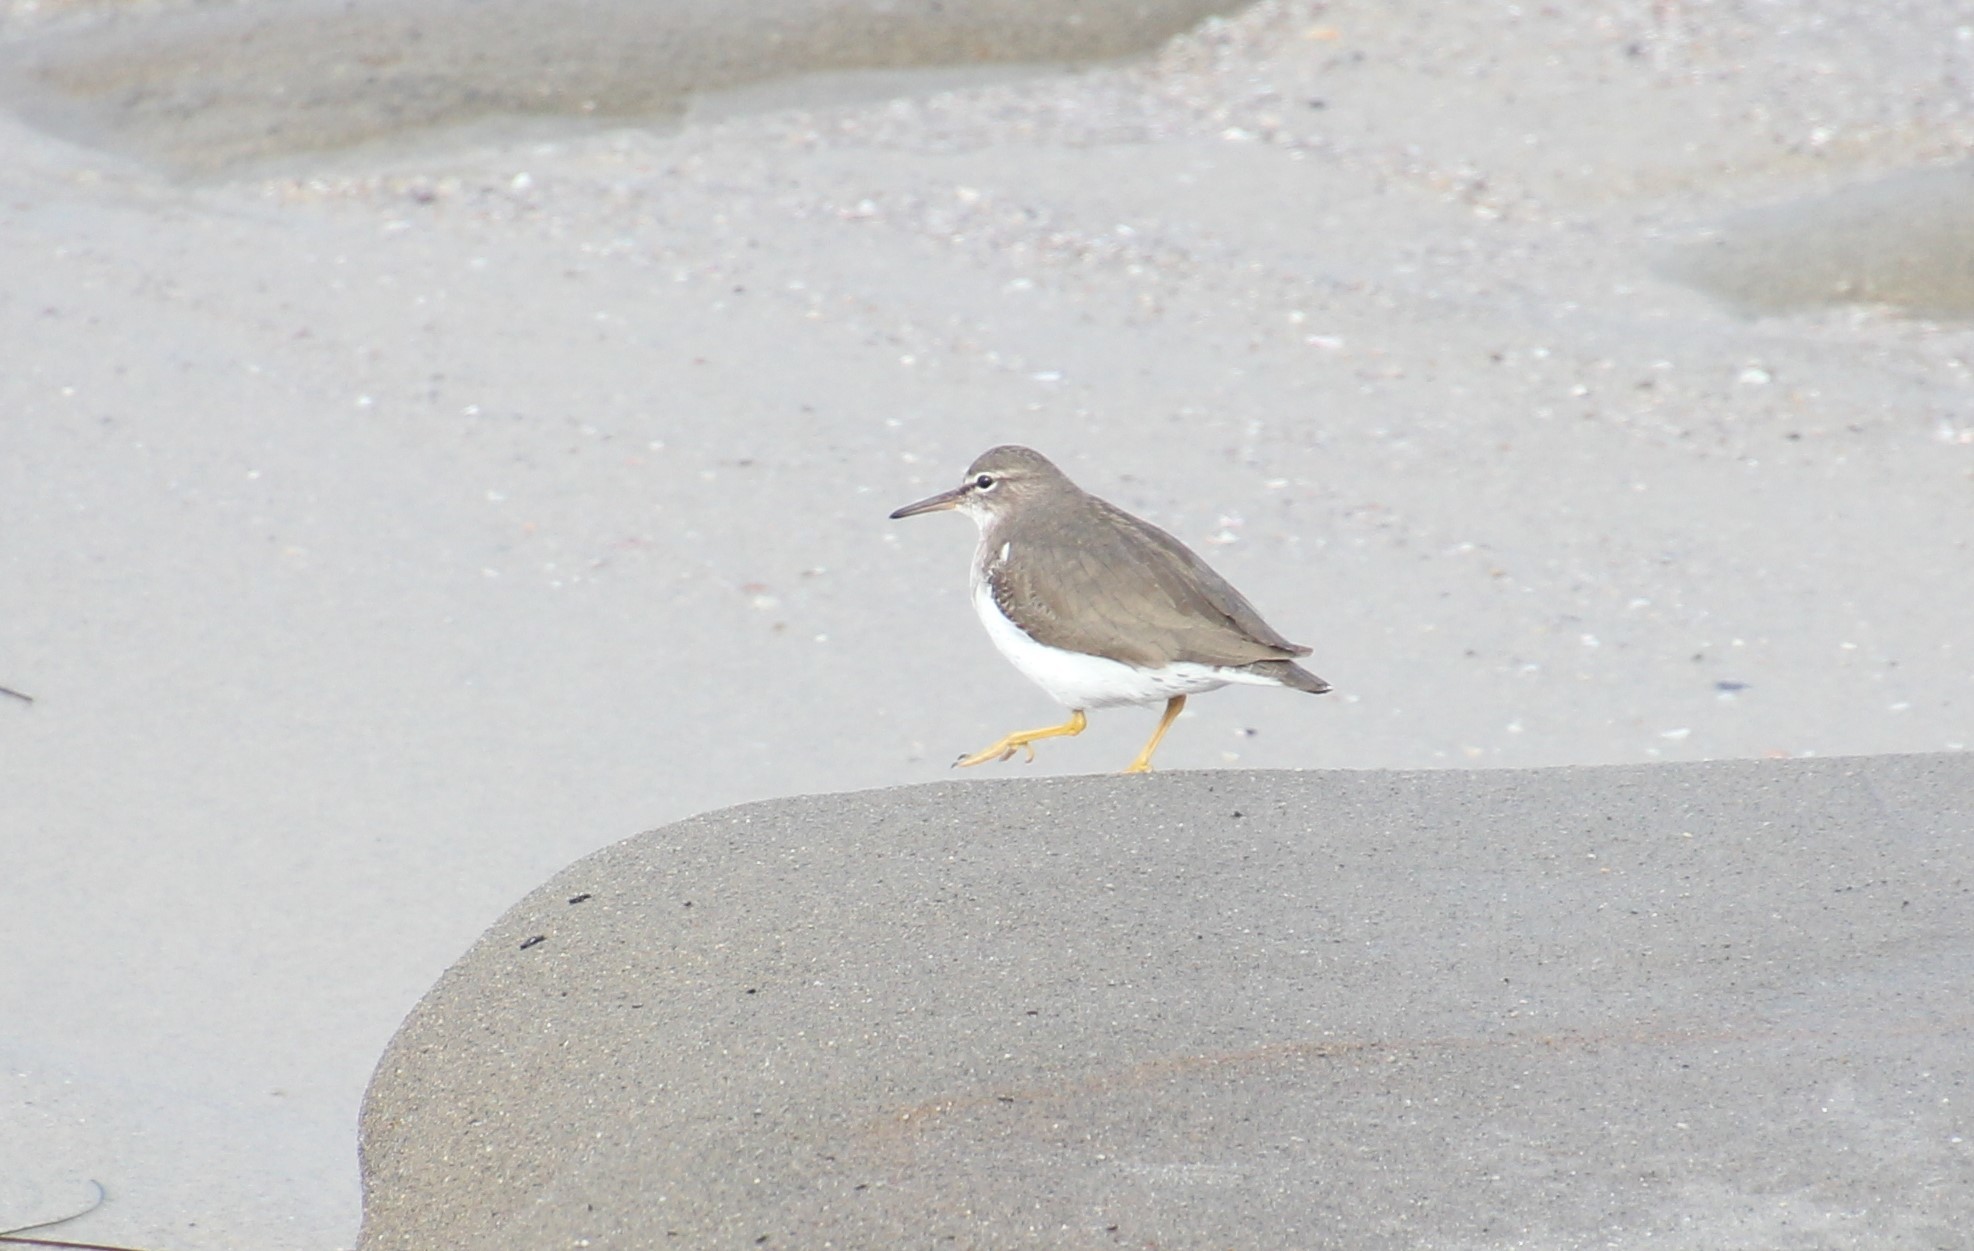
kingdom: Animalia
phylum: Chordata
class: Aves
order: Charadriiformes
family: Scolopacidae
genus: Actitis
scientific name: Actitis macularius
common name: Spotted sandpiper
